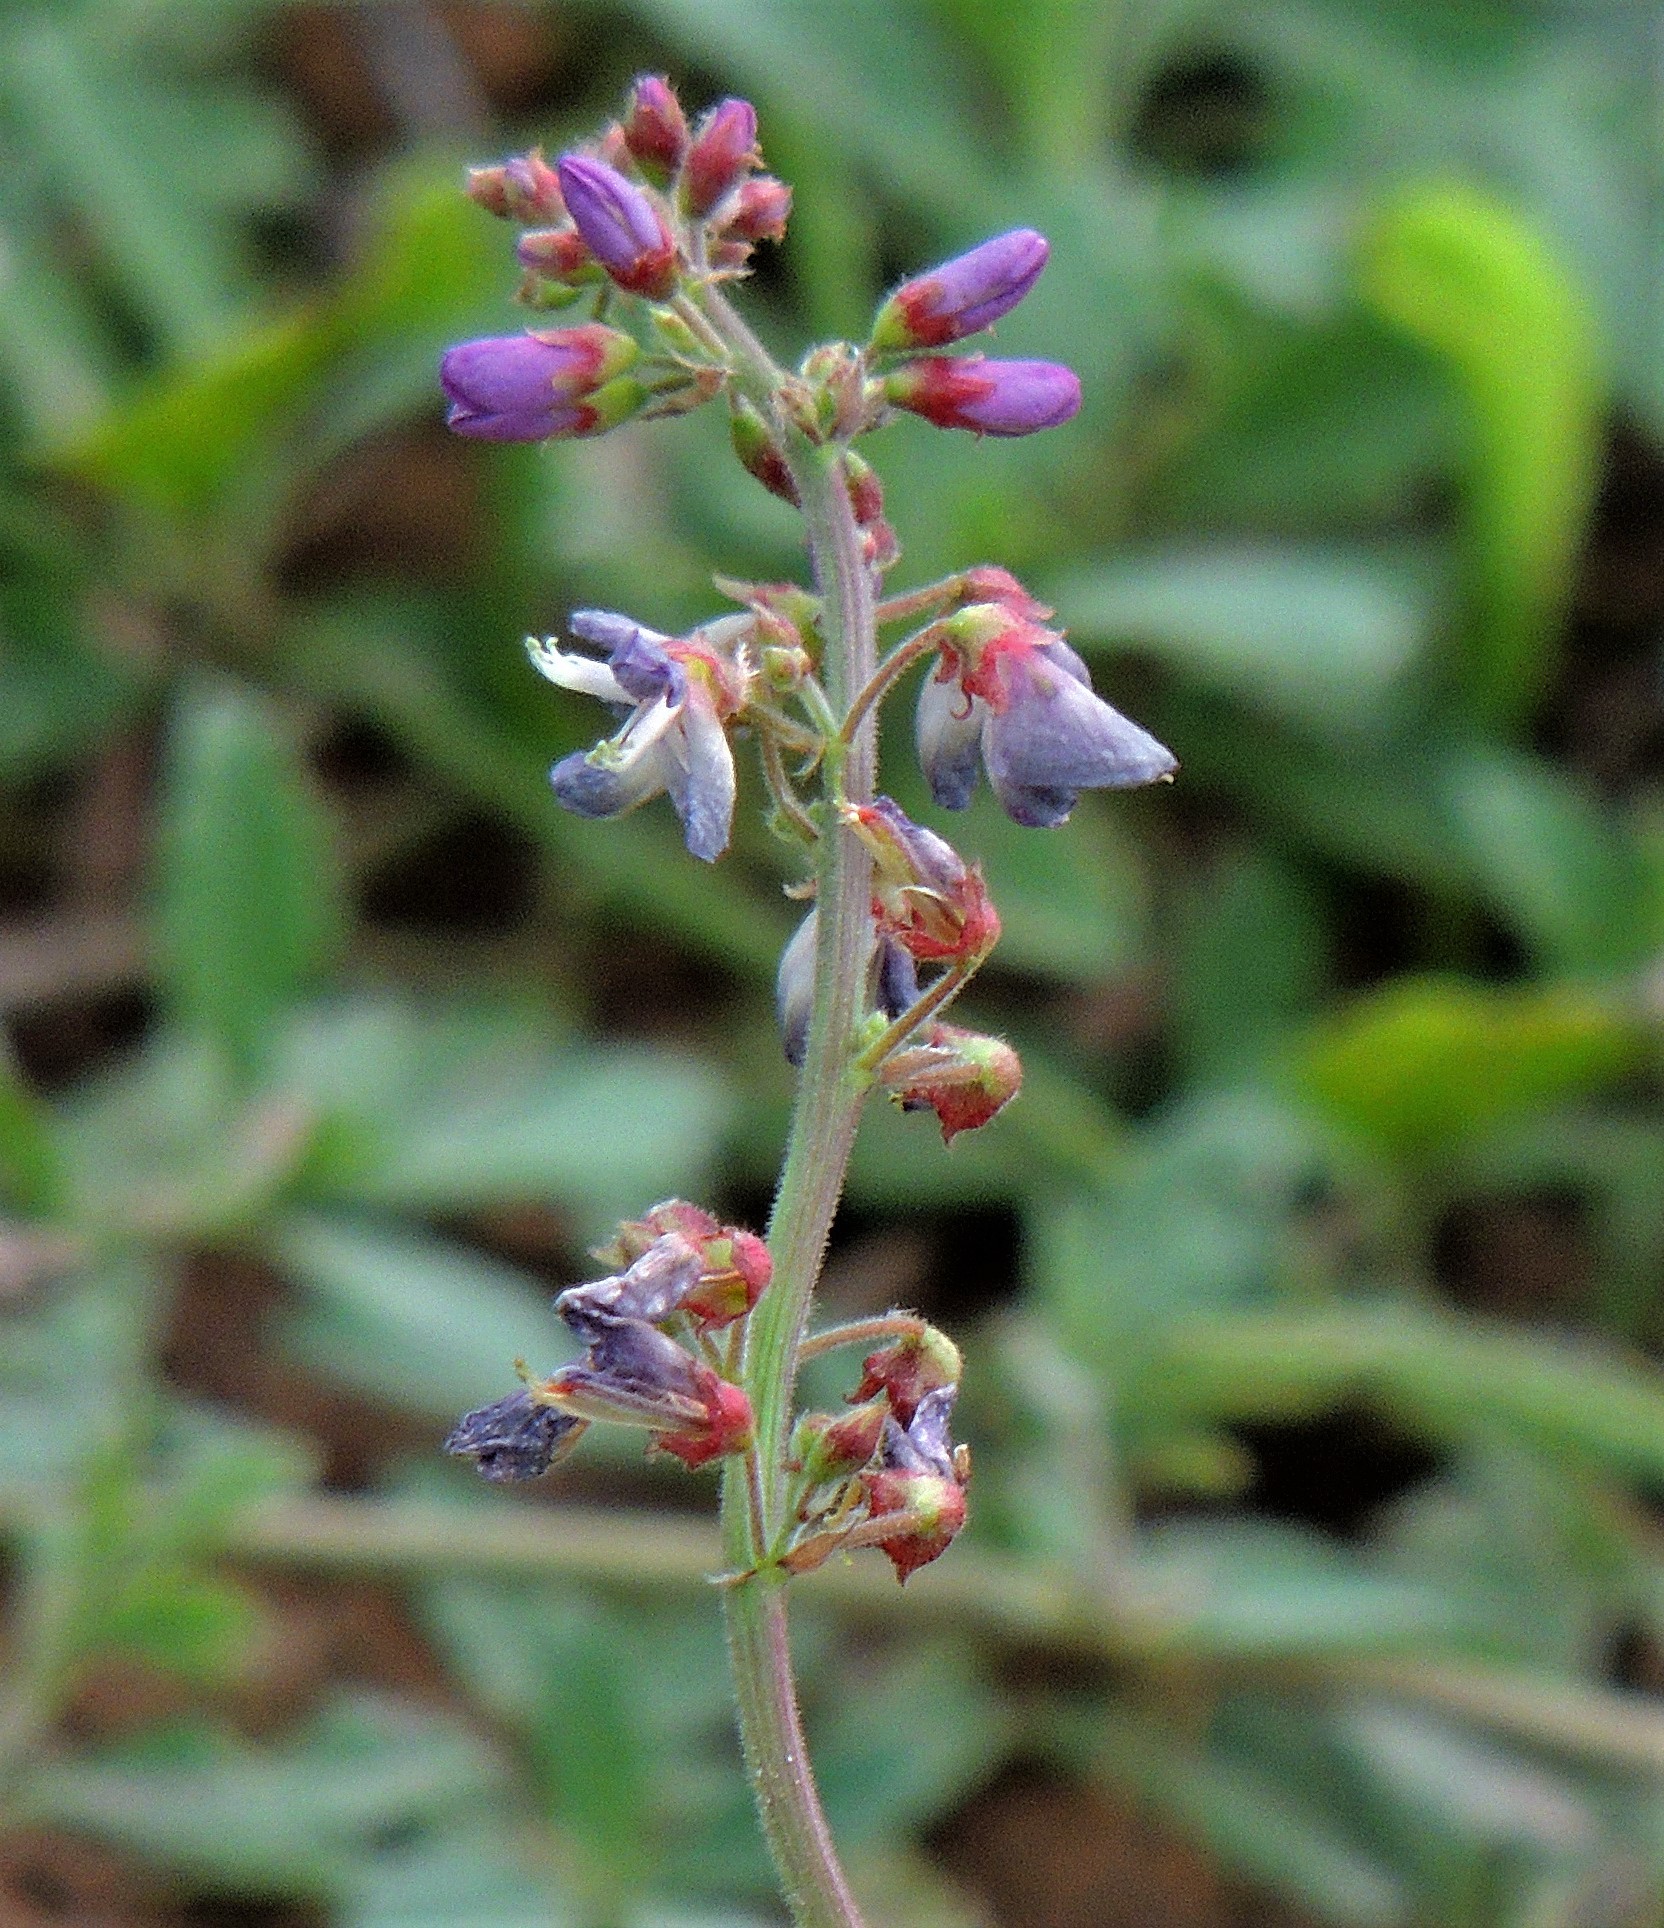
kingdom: Plantae
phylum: Tracheophyta
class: Magnoliopsida
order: Fabales
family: Fabaceae
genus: Desmodium
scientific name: Desmodium uncinatum
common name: Silverleaf desmodium
